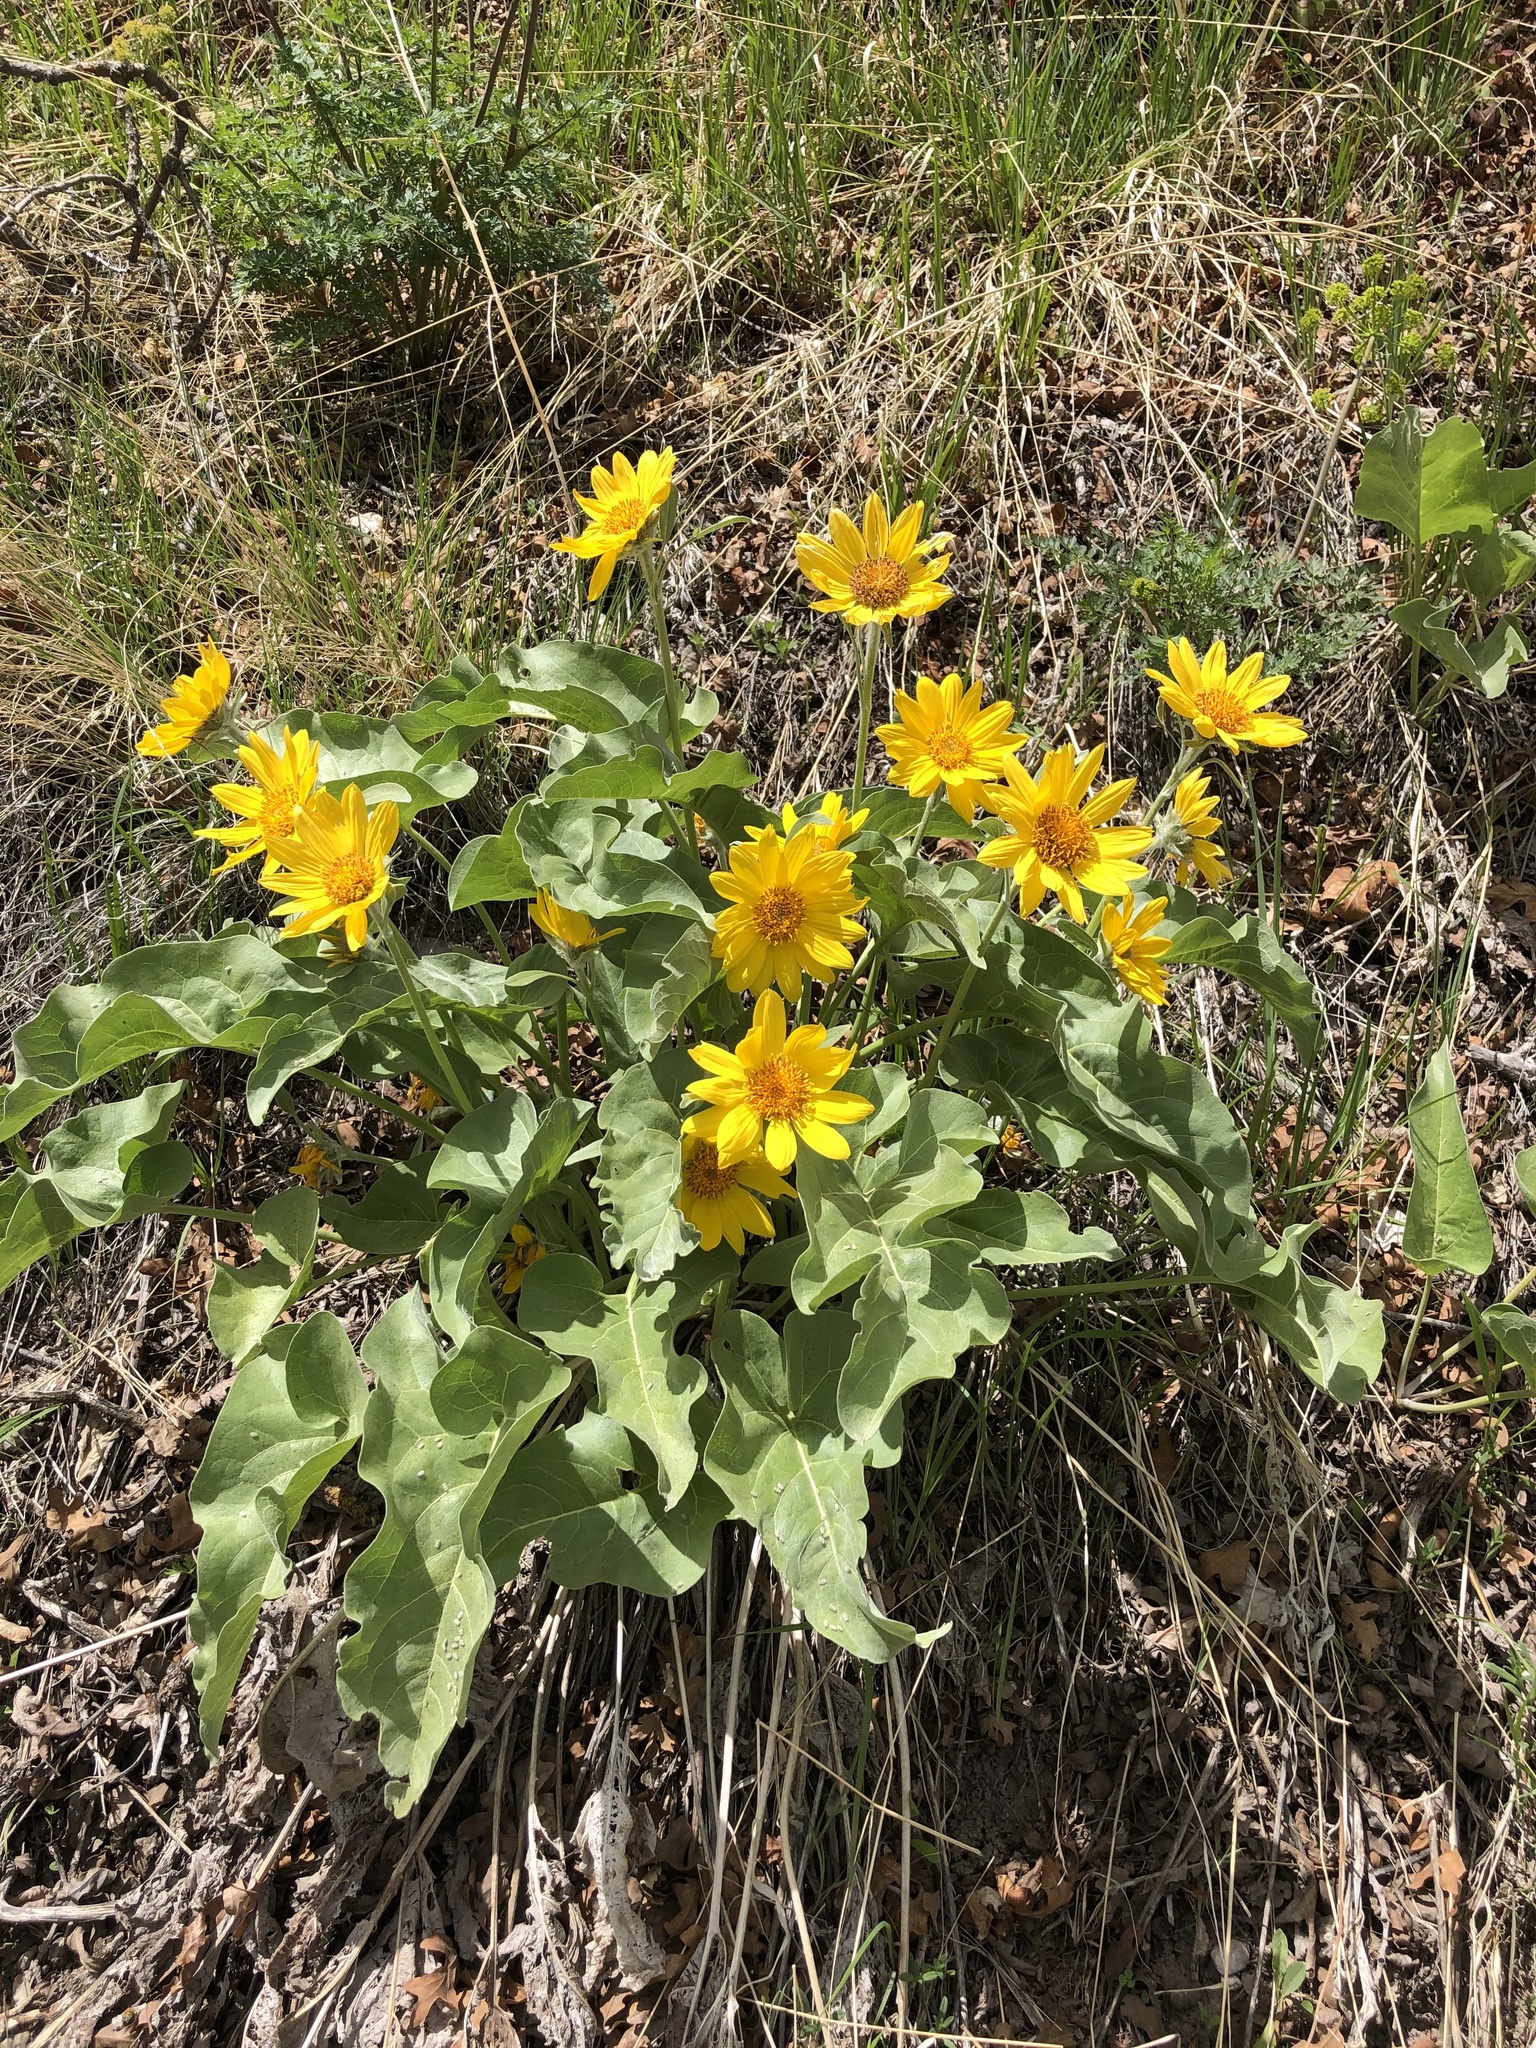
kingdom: Plantae
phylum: Tracheophyta
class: Magnoliopsida
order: Asterales
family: Asteraceae
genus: Wyethia
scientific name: Wyethia sagittata
